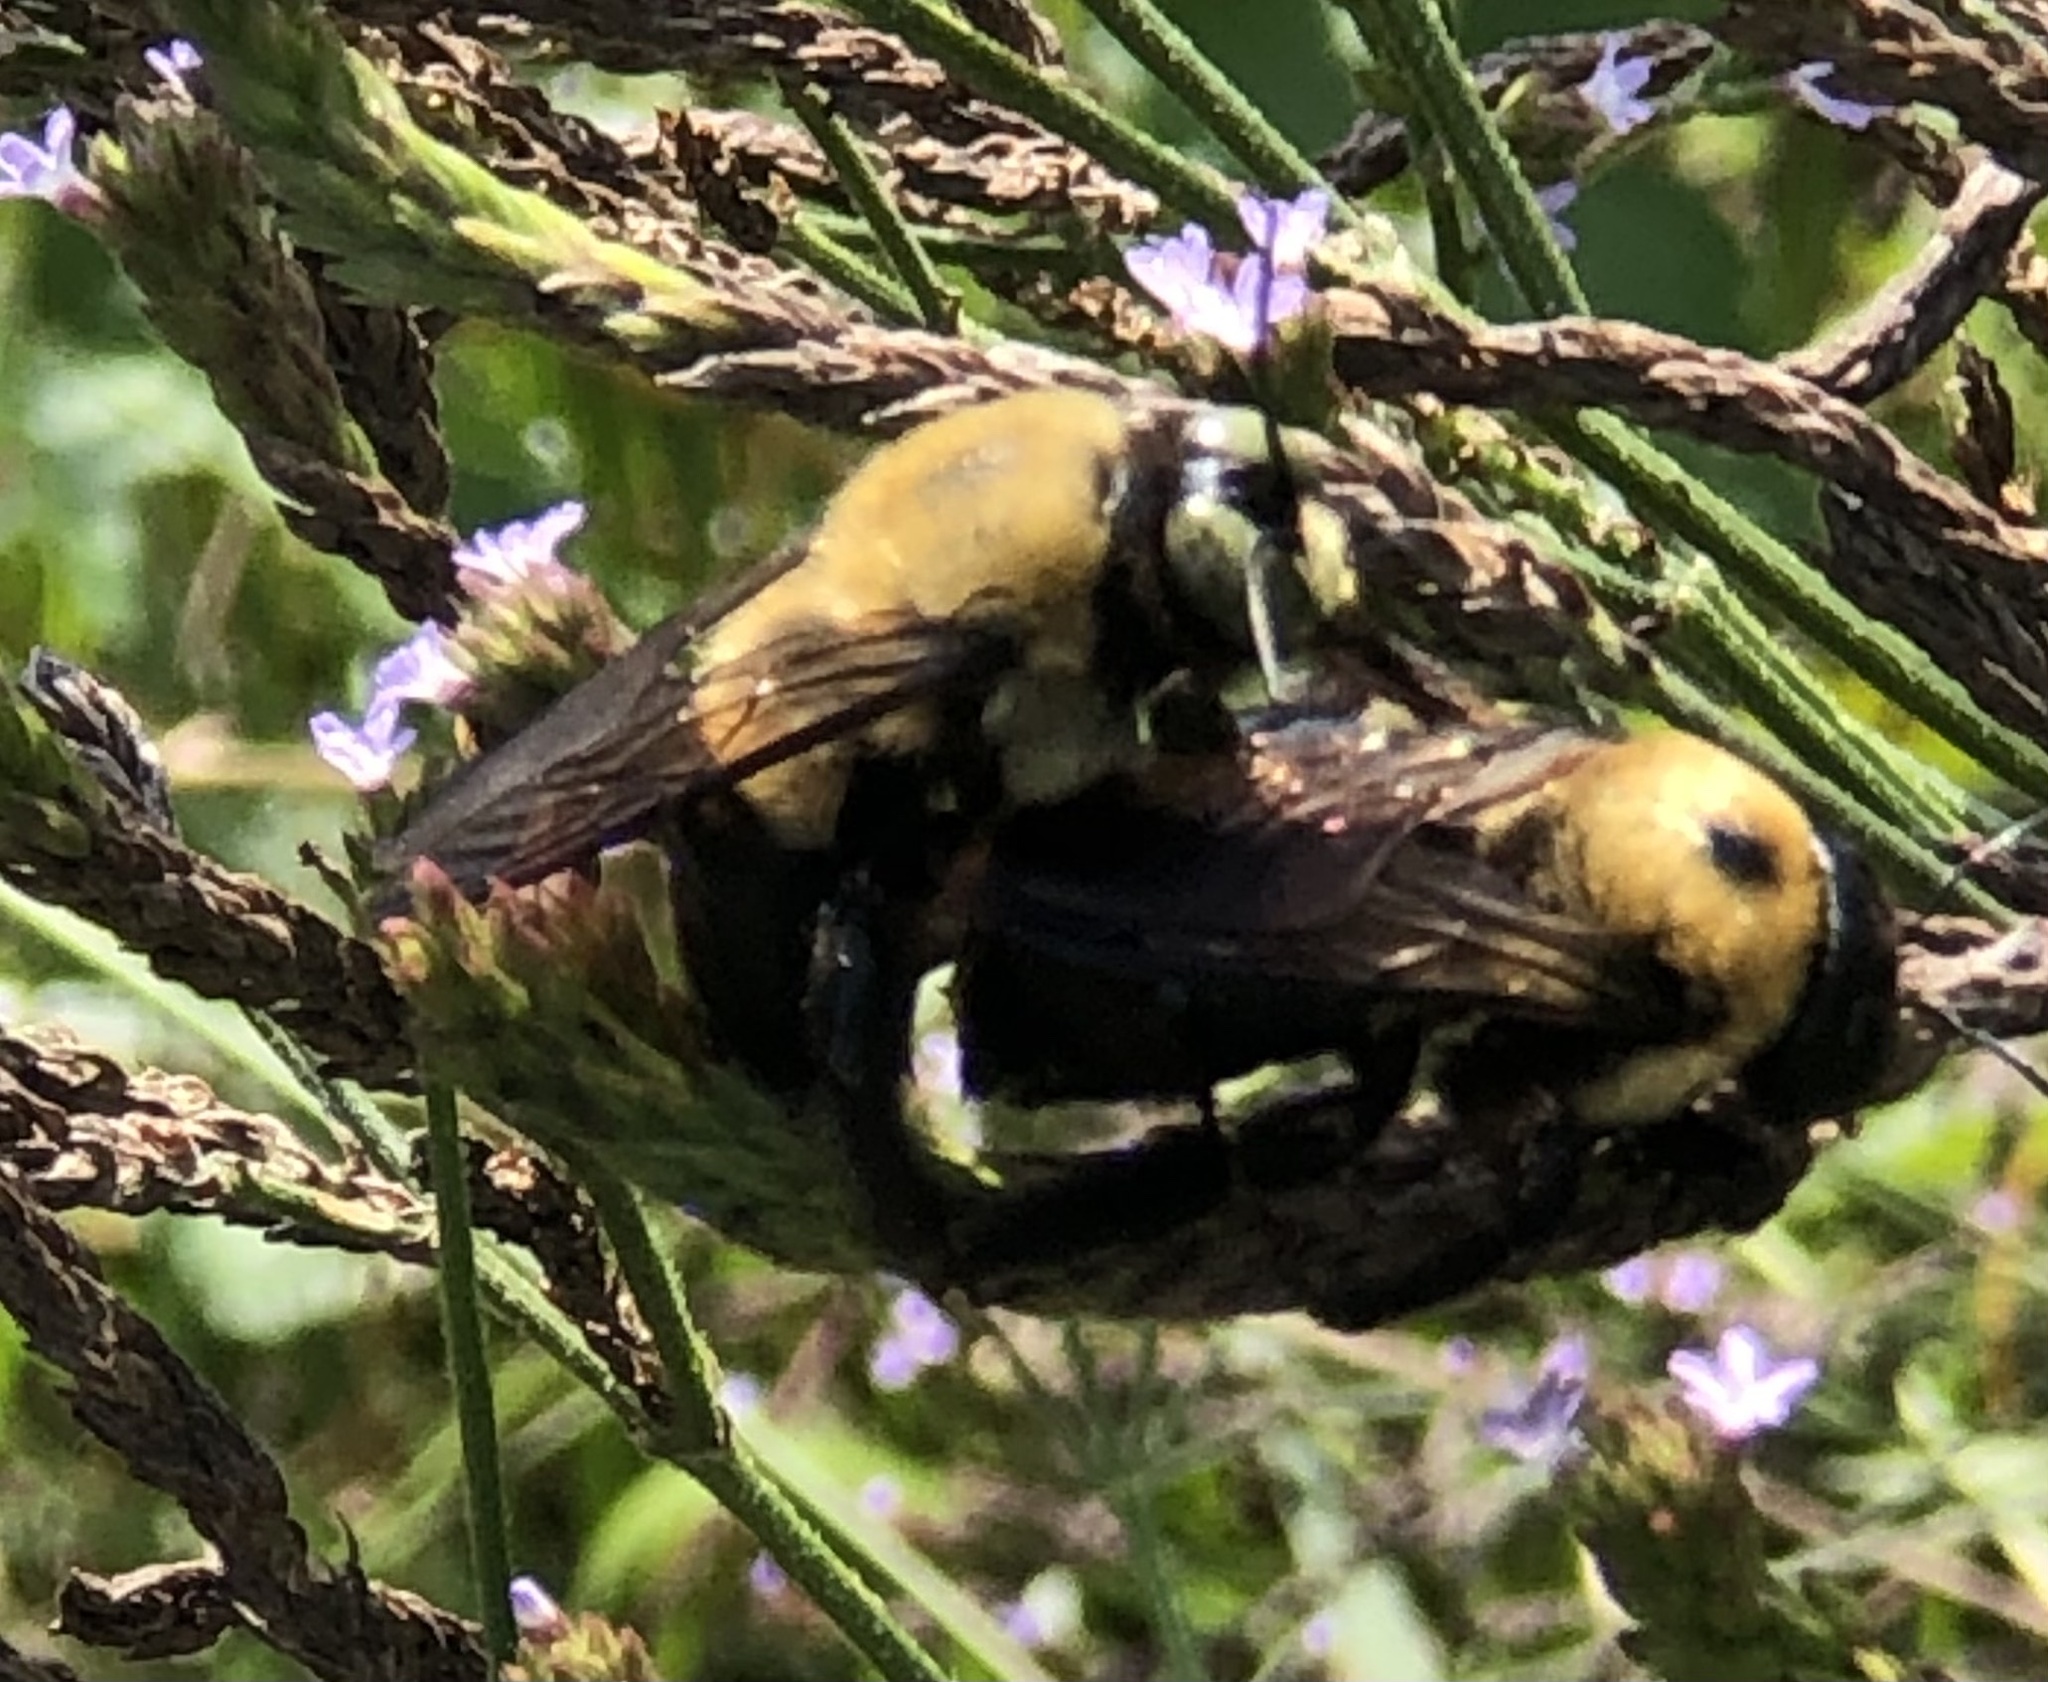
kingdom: Animalia
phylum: Arthropoda
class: Insecta
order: Hymenoptera
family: Apidae
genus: Xylocopa
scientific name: Xylocopa virginica
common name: Carpenter bee
